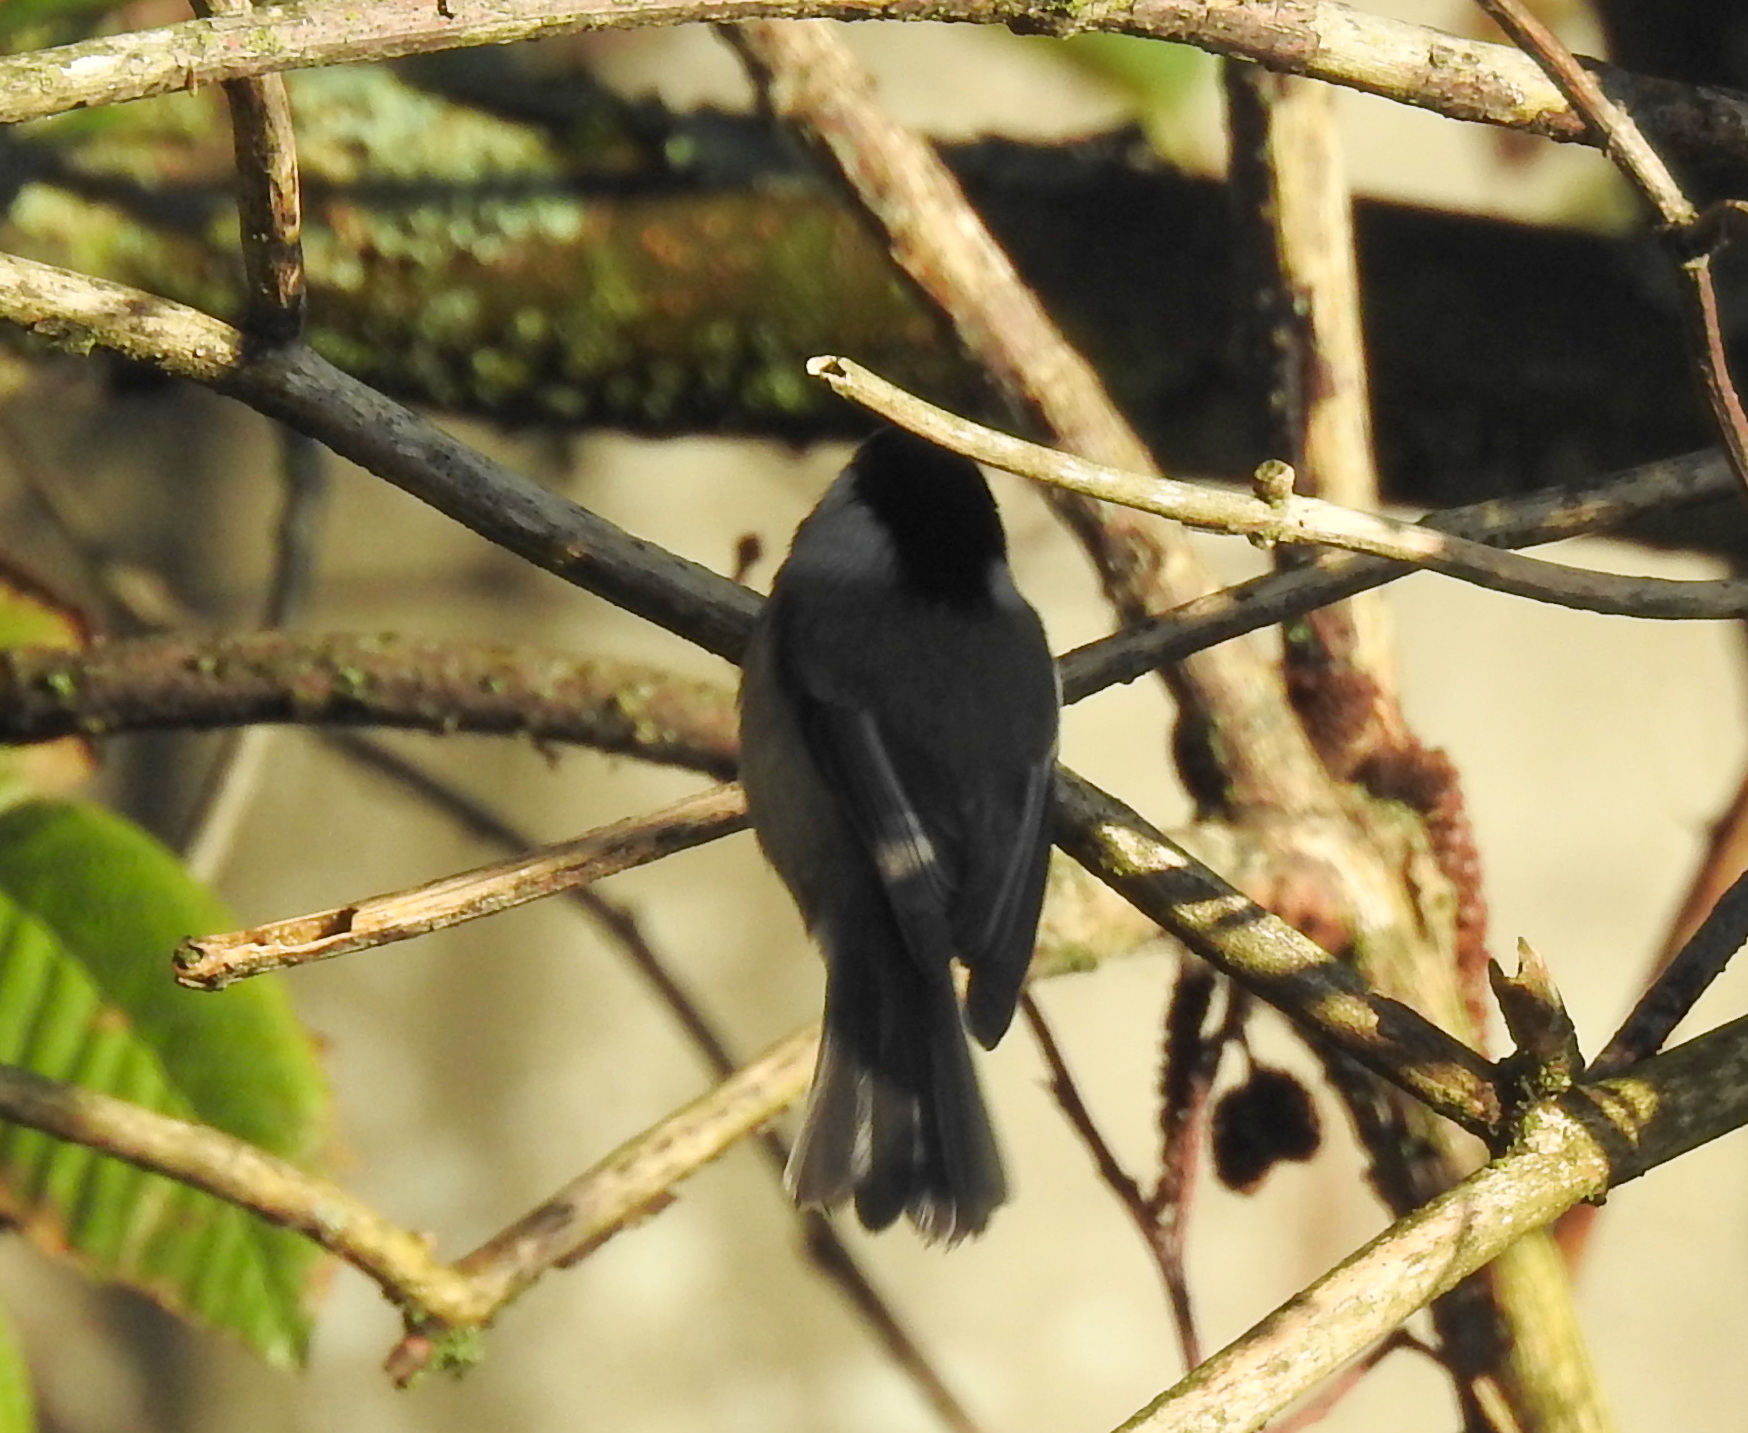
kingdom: Animalia
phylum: Chordata
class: Aves
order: Passeriformes
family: Paridae
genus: Poecile
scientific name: Poecile atricapillus
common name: Black-capped chickadee
